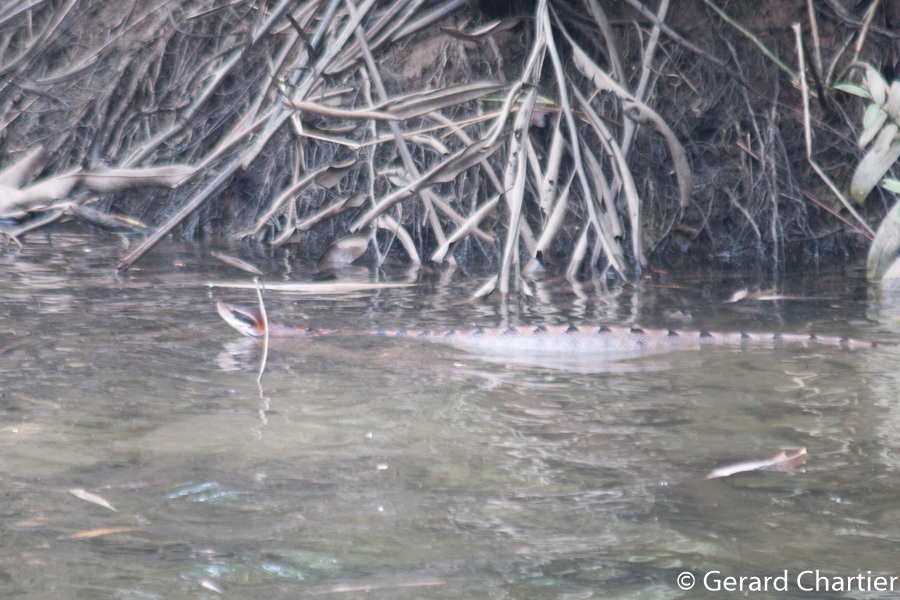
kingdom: Animalia
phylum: Chordata
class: Squamata
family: Viperidae
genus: Calloselasma
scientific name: Calloselasma rhodostoma
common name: Malayan pit viper
